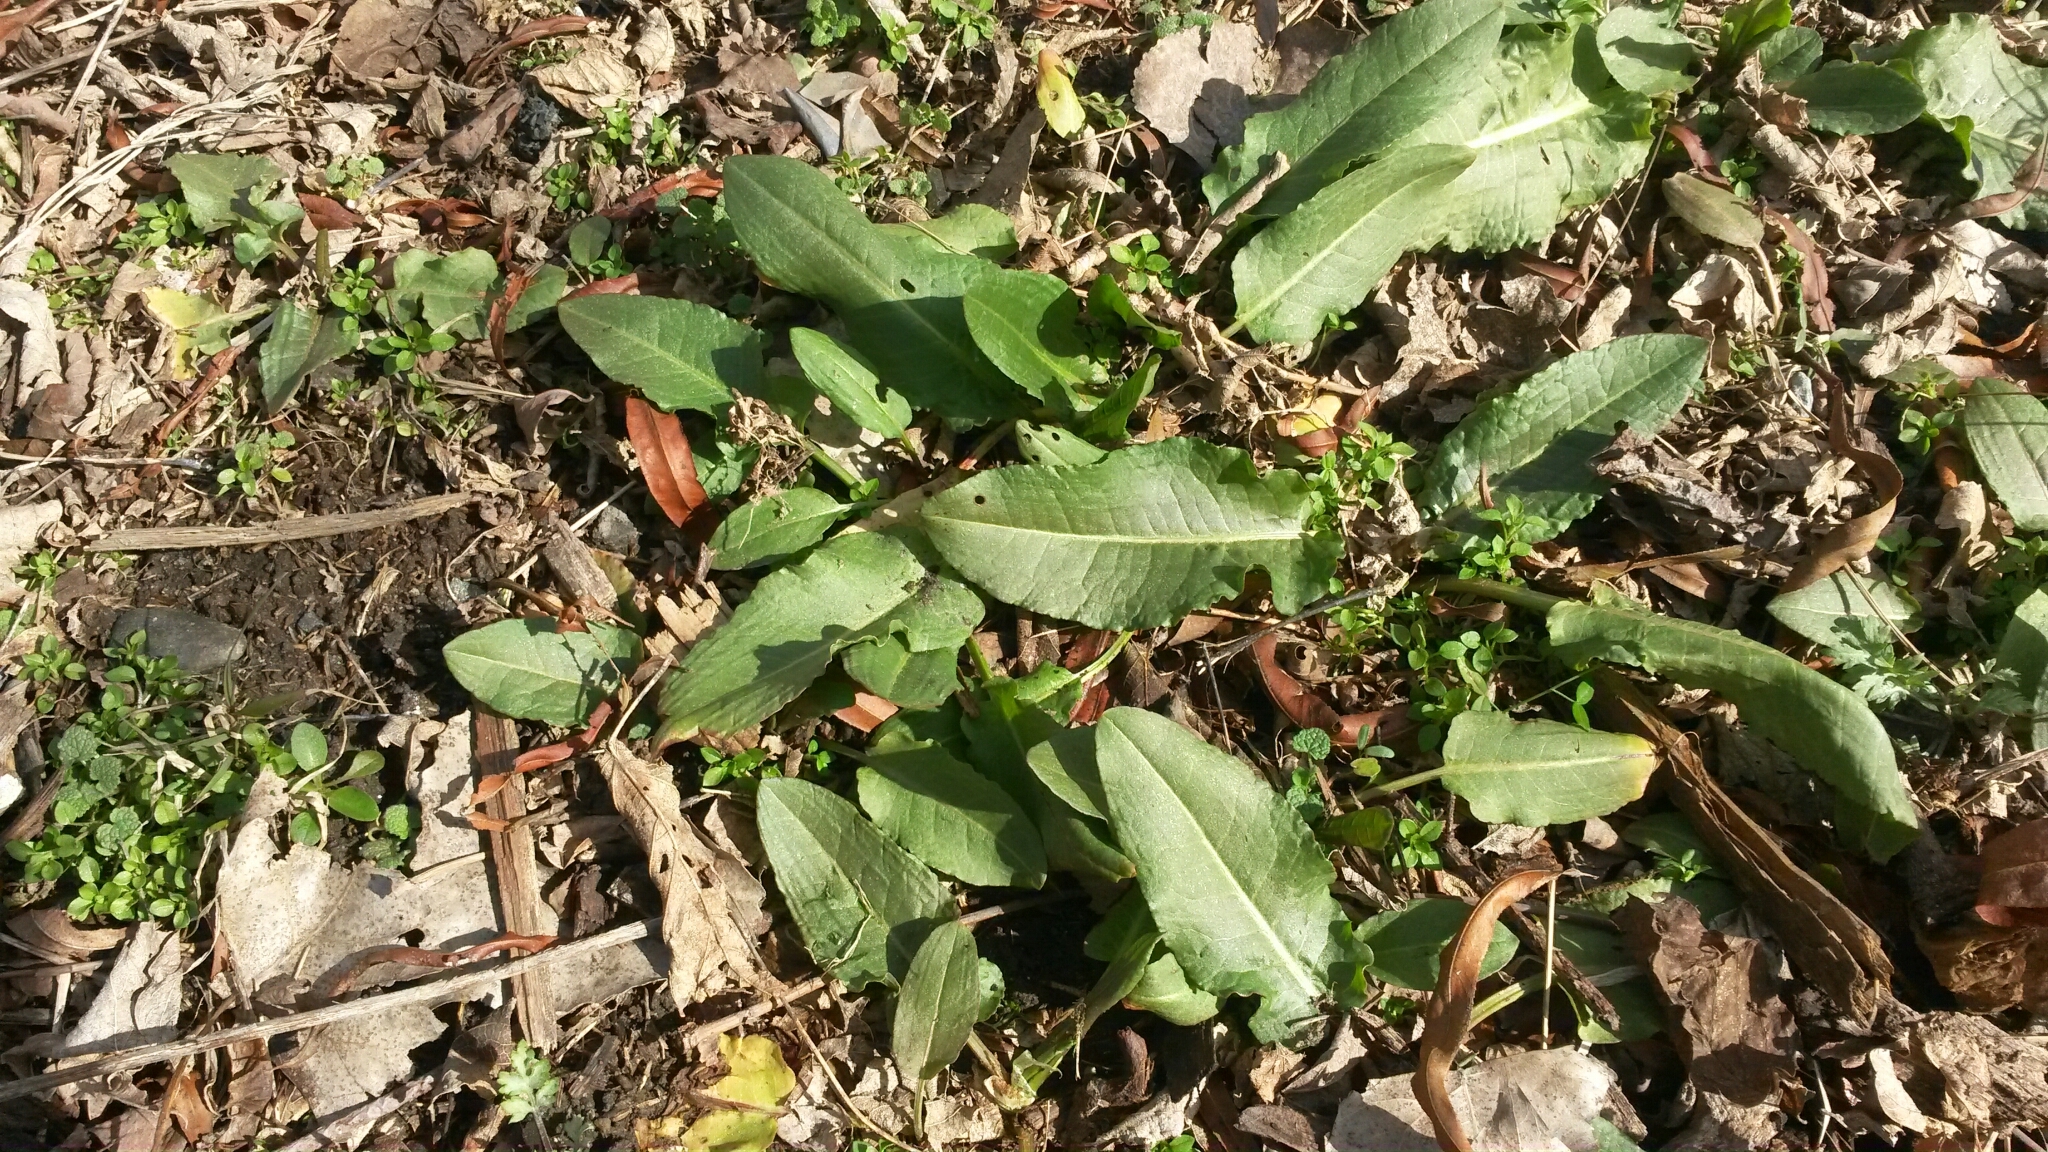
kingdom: Plantae
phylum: Tracheophyta
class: Magnoliopsida
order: Caryophyllales
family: Polygonaceae
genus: Rumex
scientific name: Rumex patientia
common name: Patience dock
